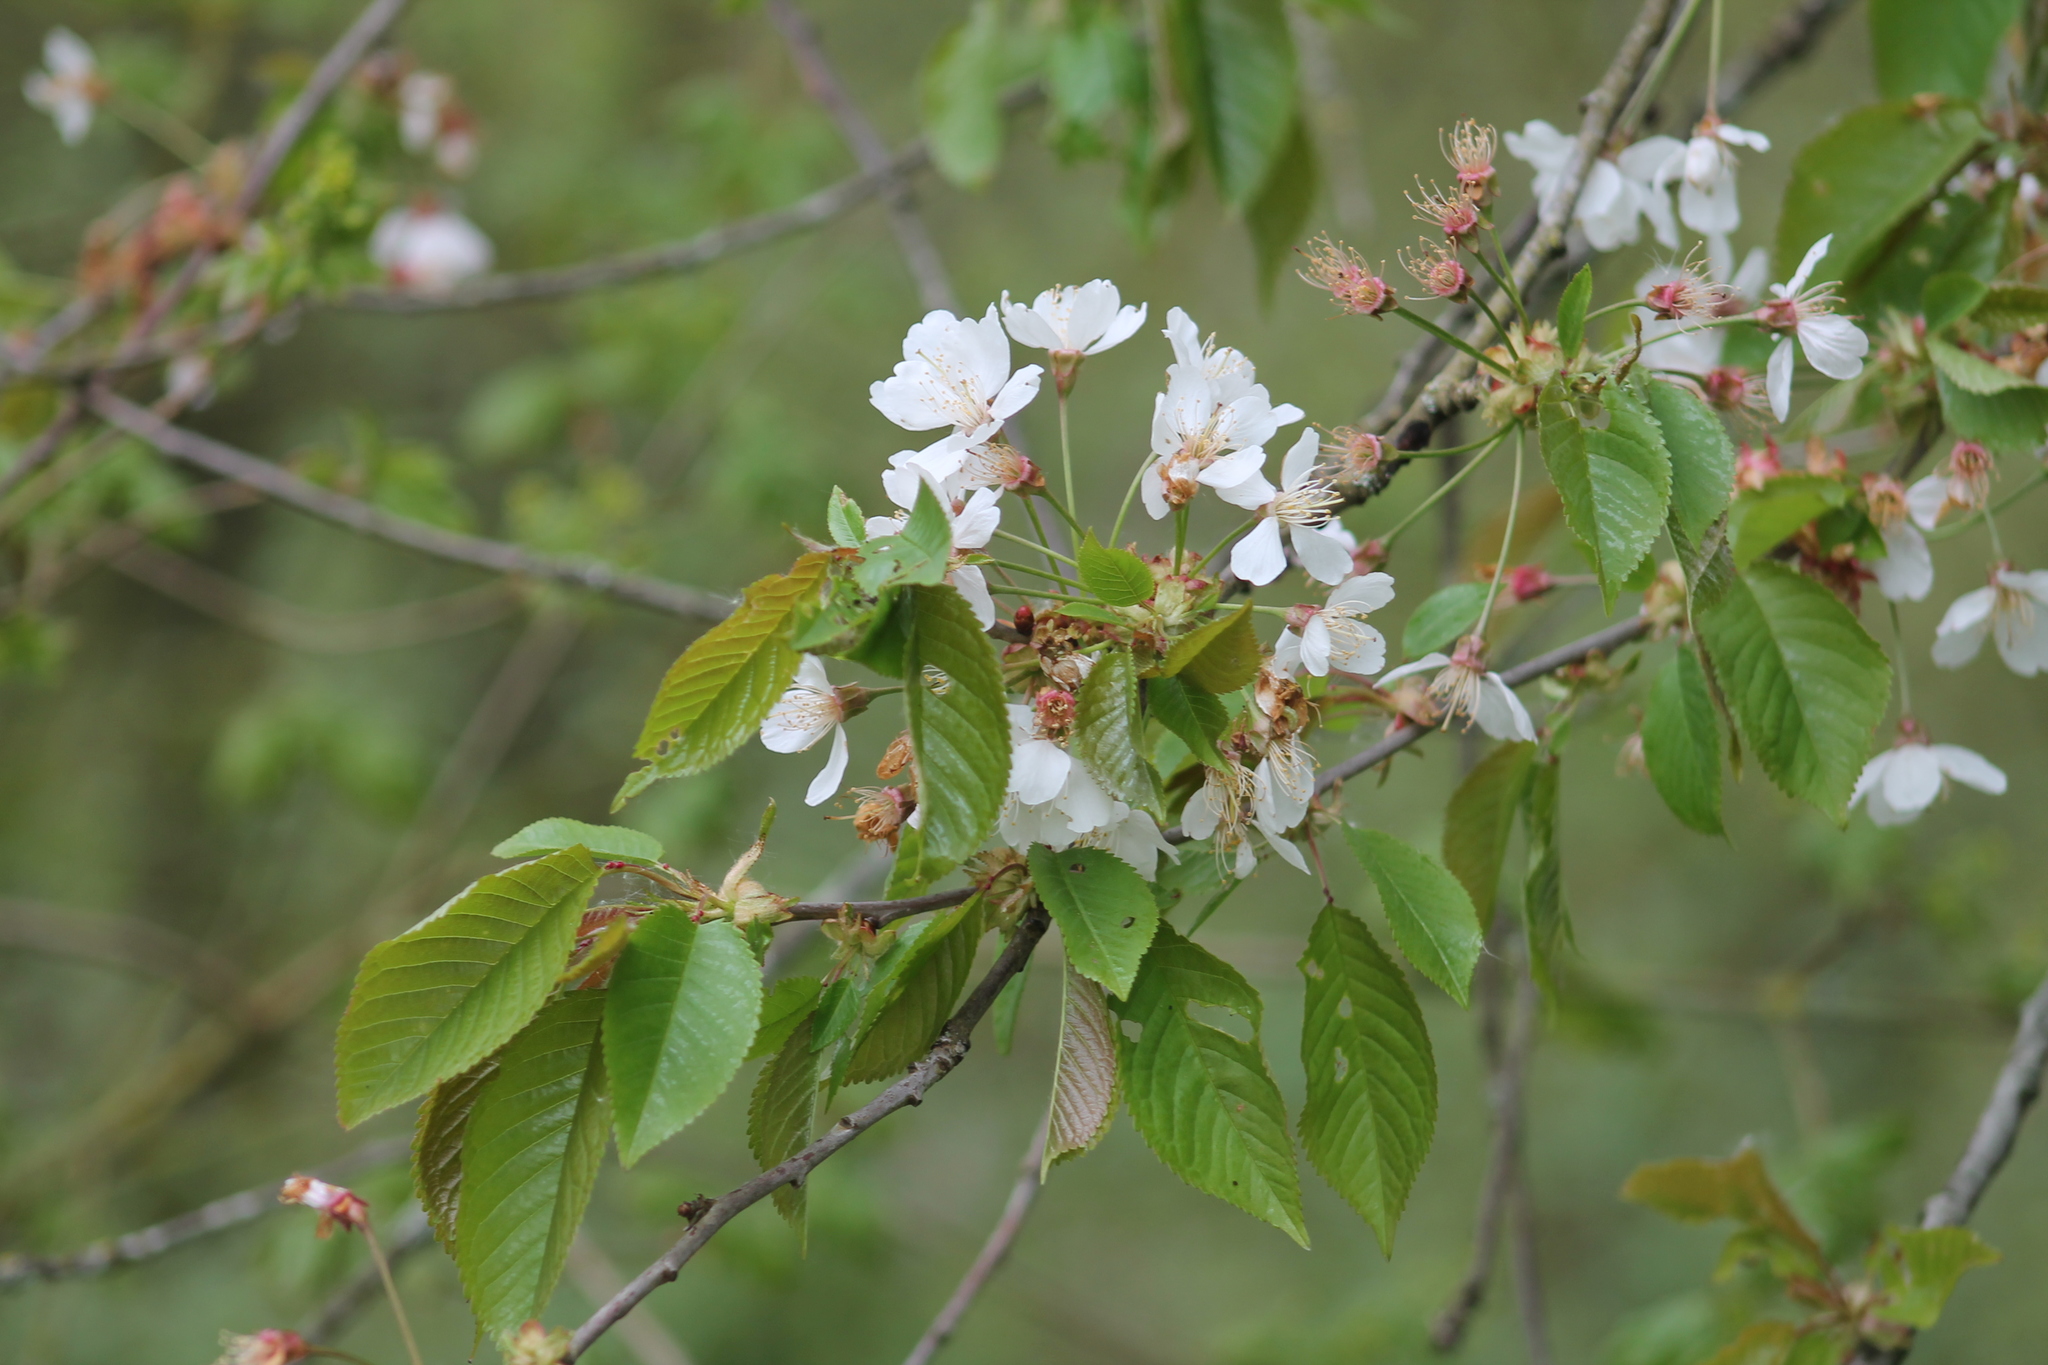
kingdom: Plantae
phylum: Tracheophyta
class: Magnoliopsida
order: Rosales
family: Rosaceae
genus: Prunus
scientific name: Prunus avium
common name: Sweet cherry
